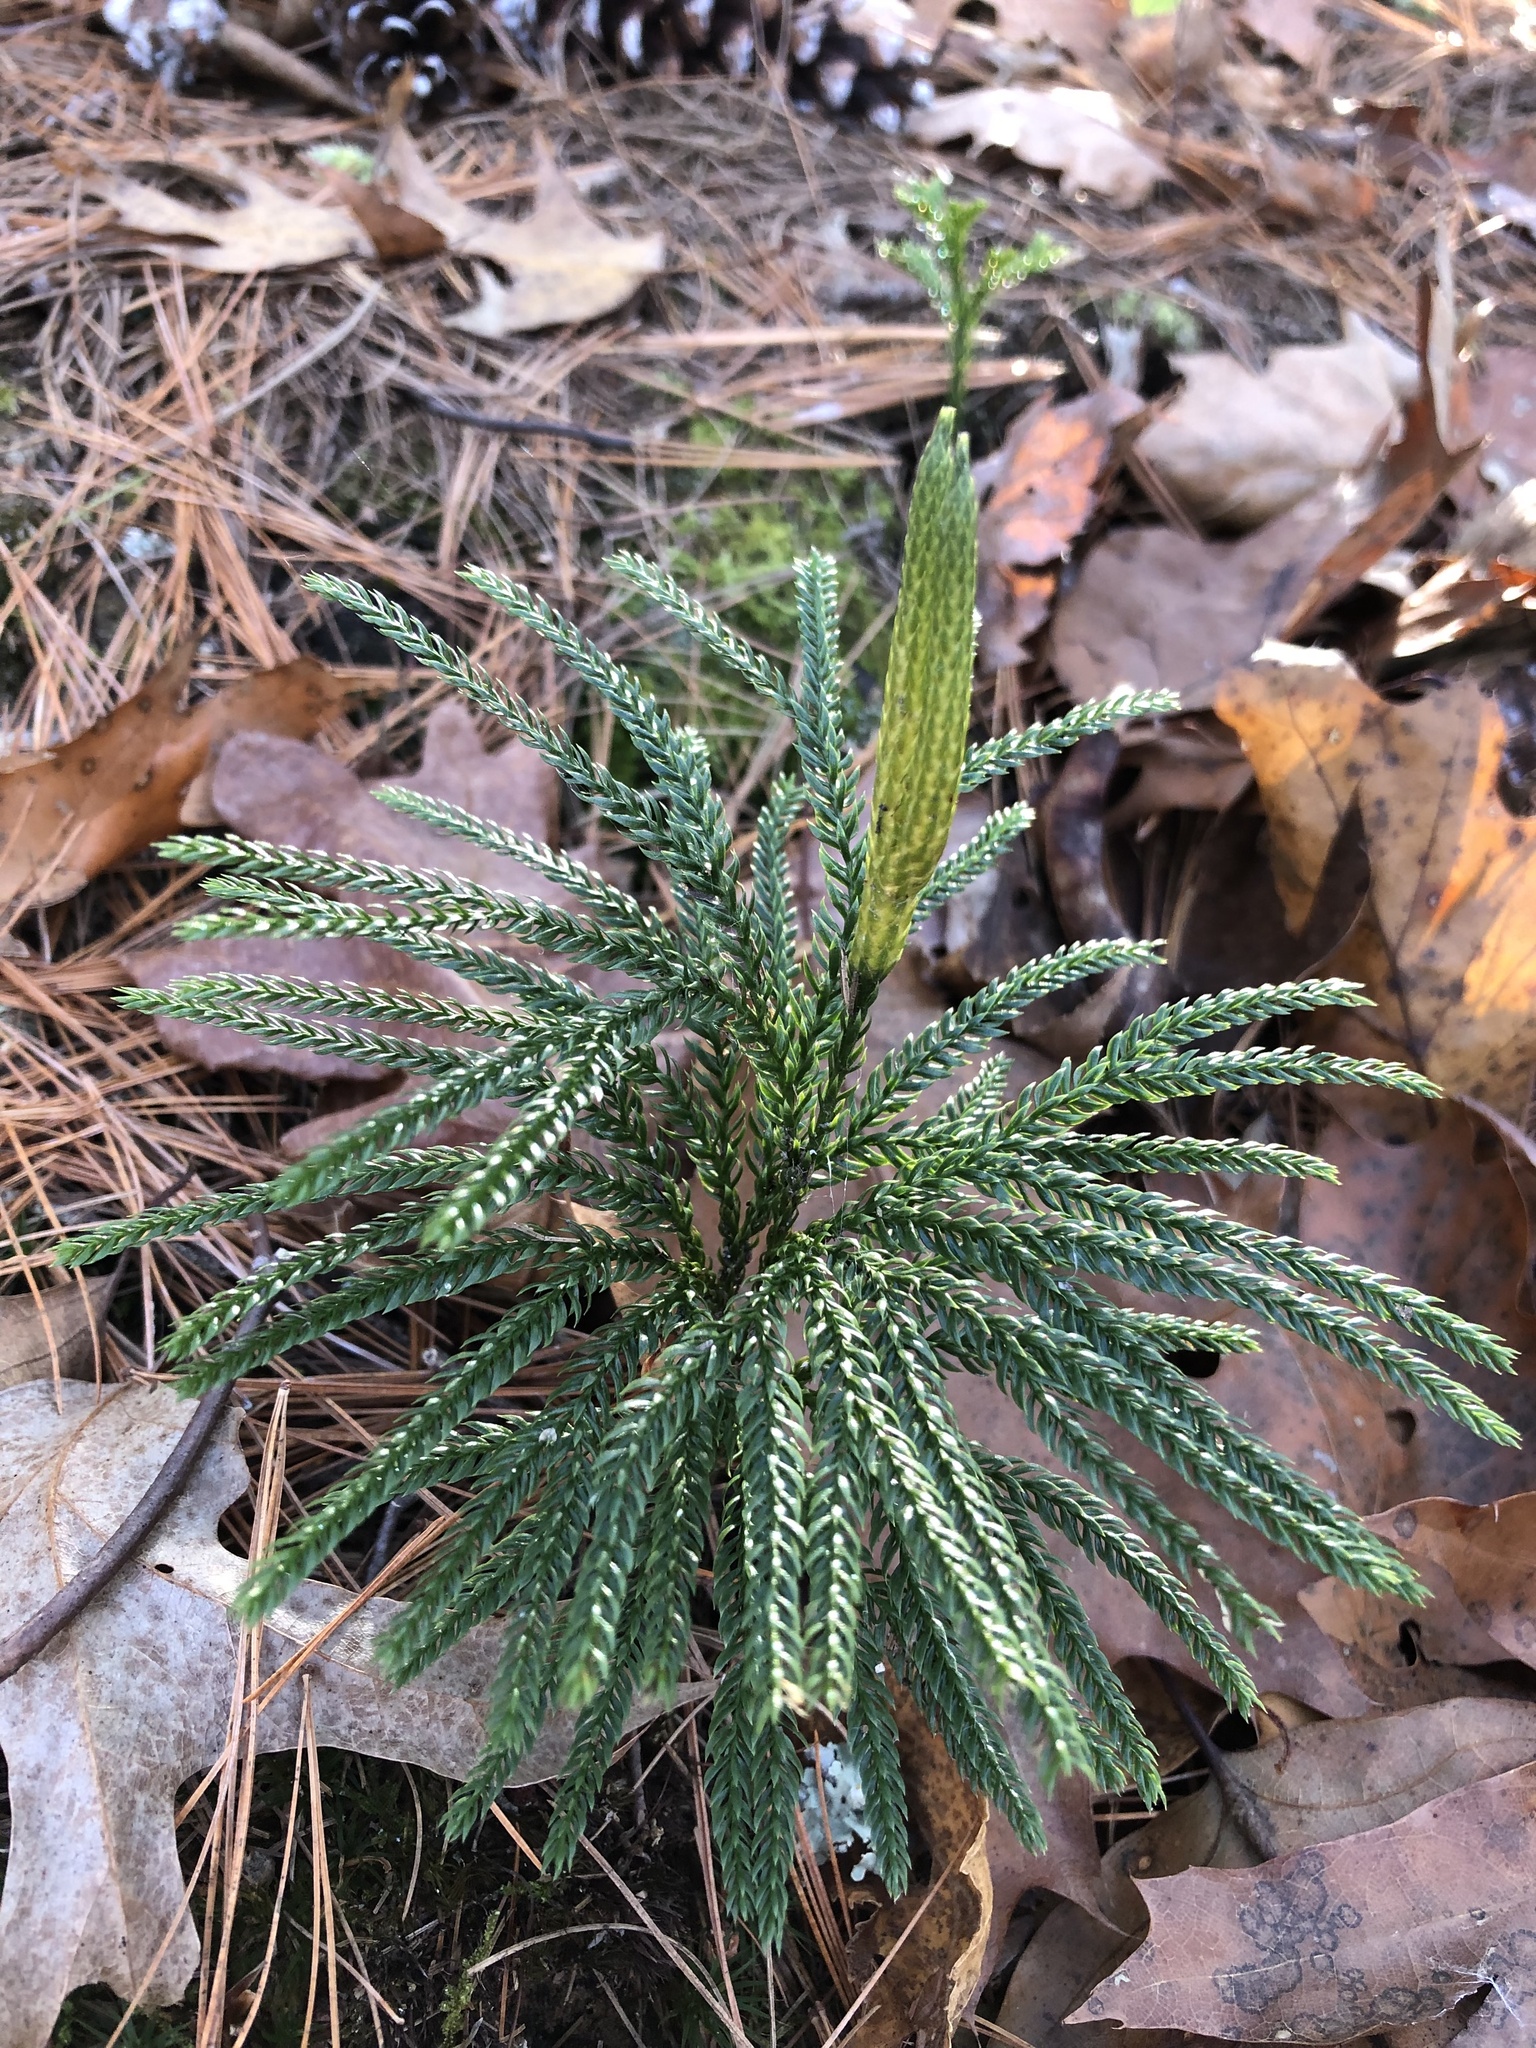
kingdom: Plantae
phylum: Tracheophyta
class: Lycopodiopsida
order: Lycopodiales
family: Lycopodiaceae
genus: Dendrolycopodium
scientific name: Dendrolycopodium obscurum
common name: Common ground-pine
